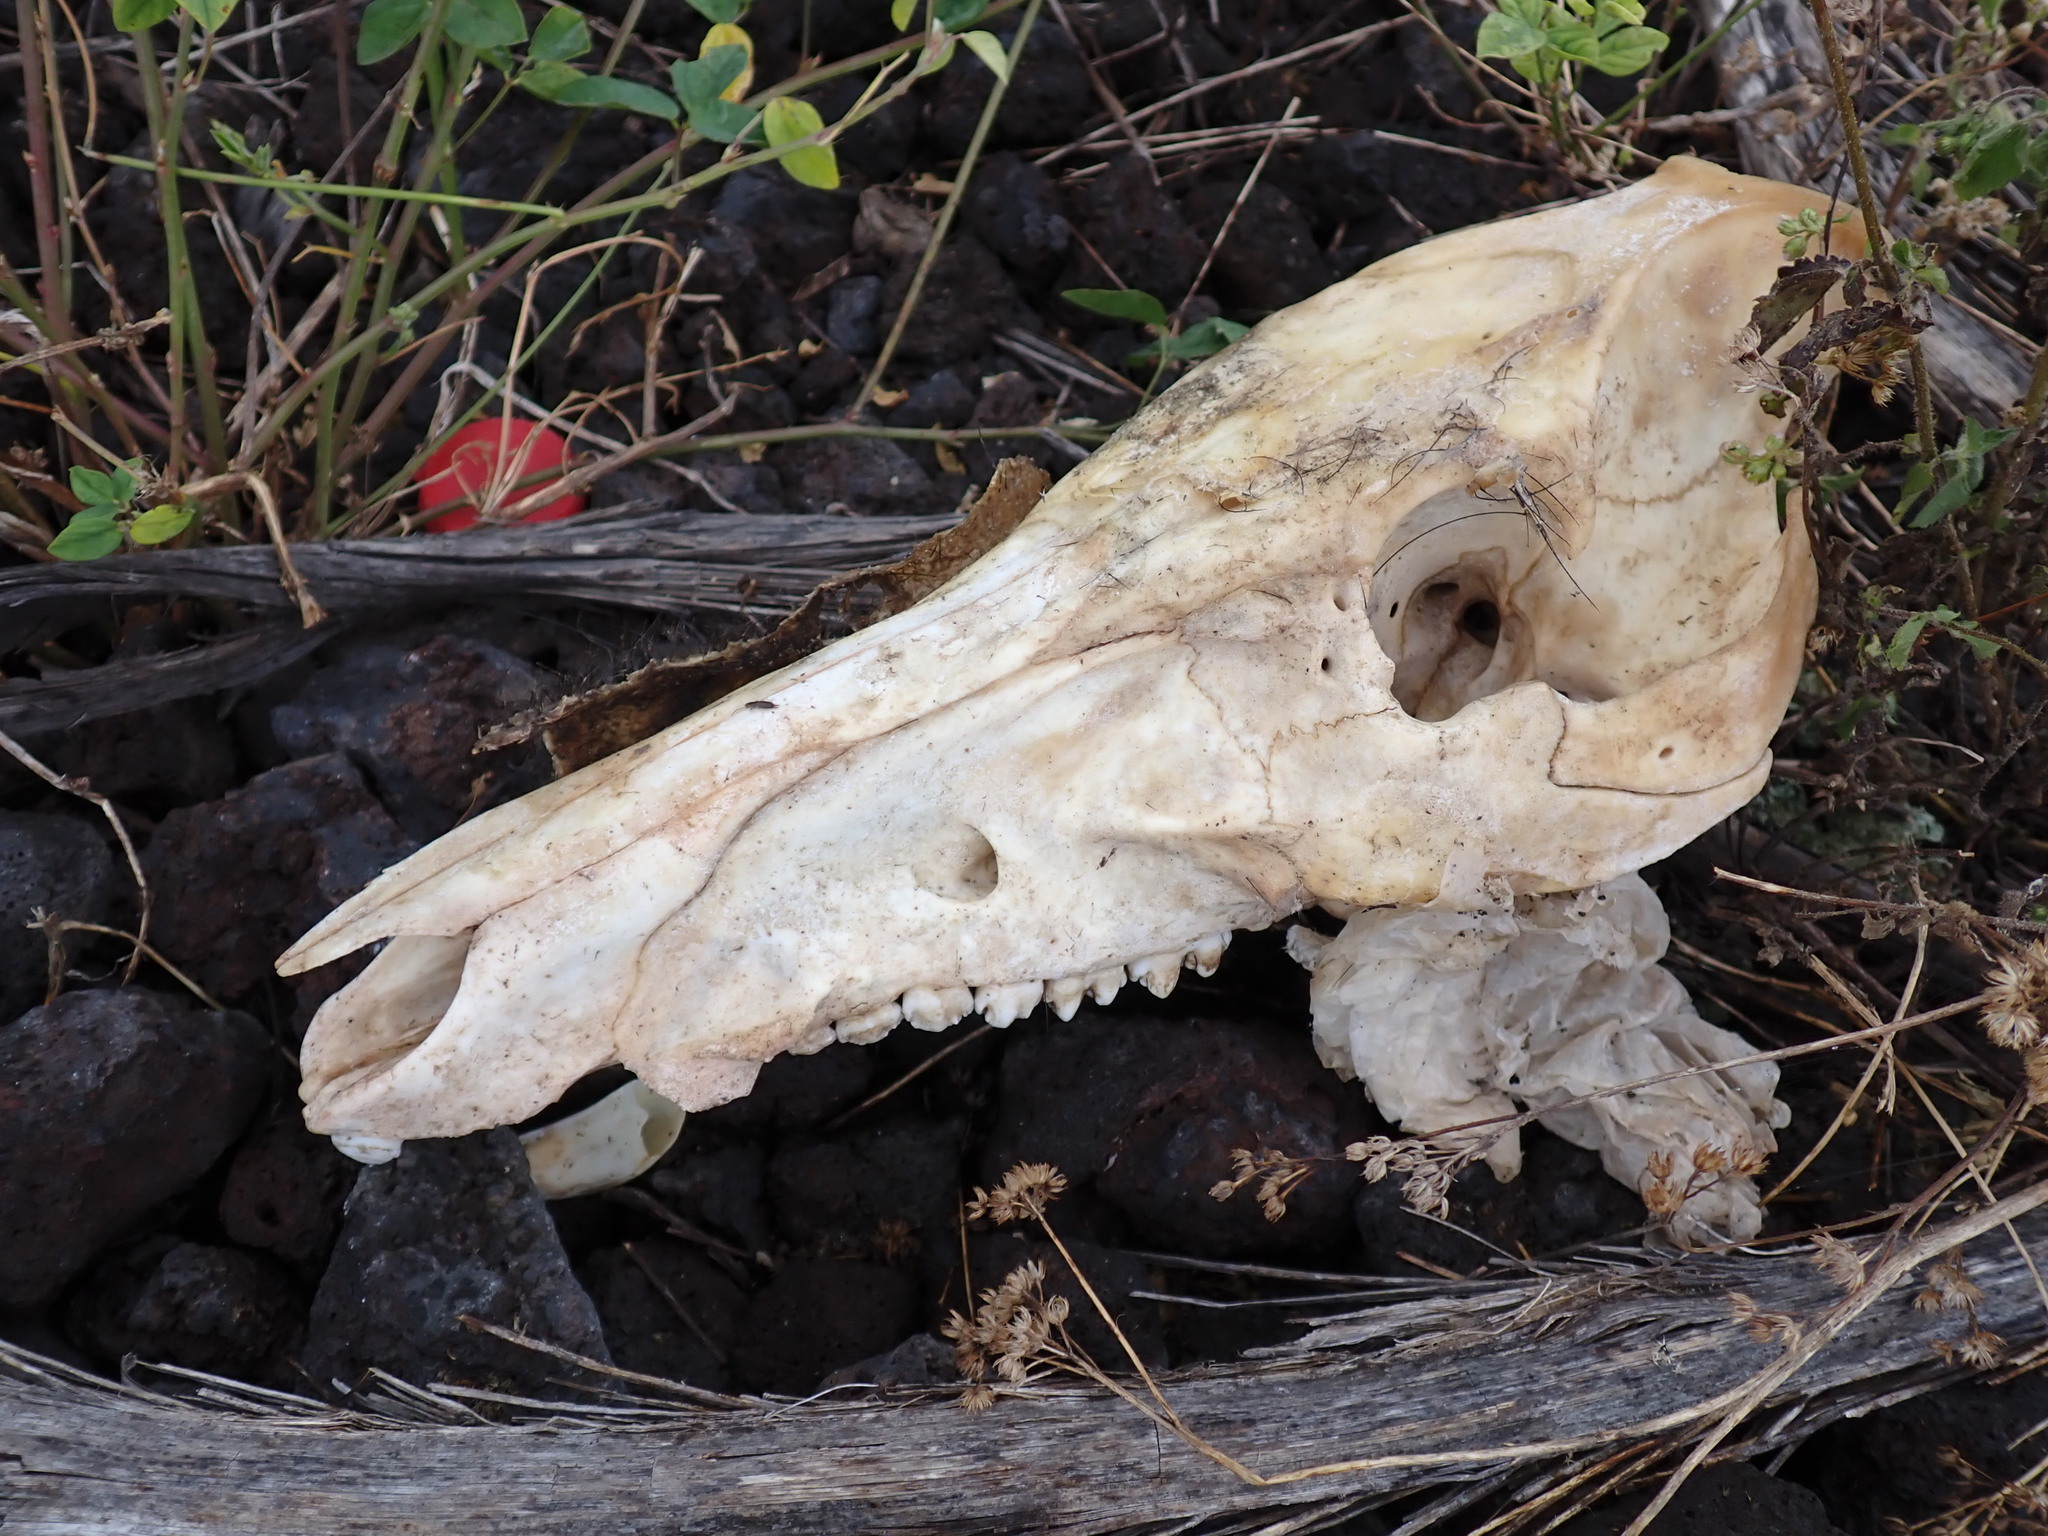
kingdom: Animalia
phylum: Chordata
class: Mammalia
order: Artiodactyla
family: Suidae
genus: Sus
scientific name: Sus scrofa
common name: Wild boar
